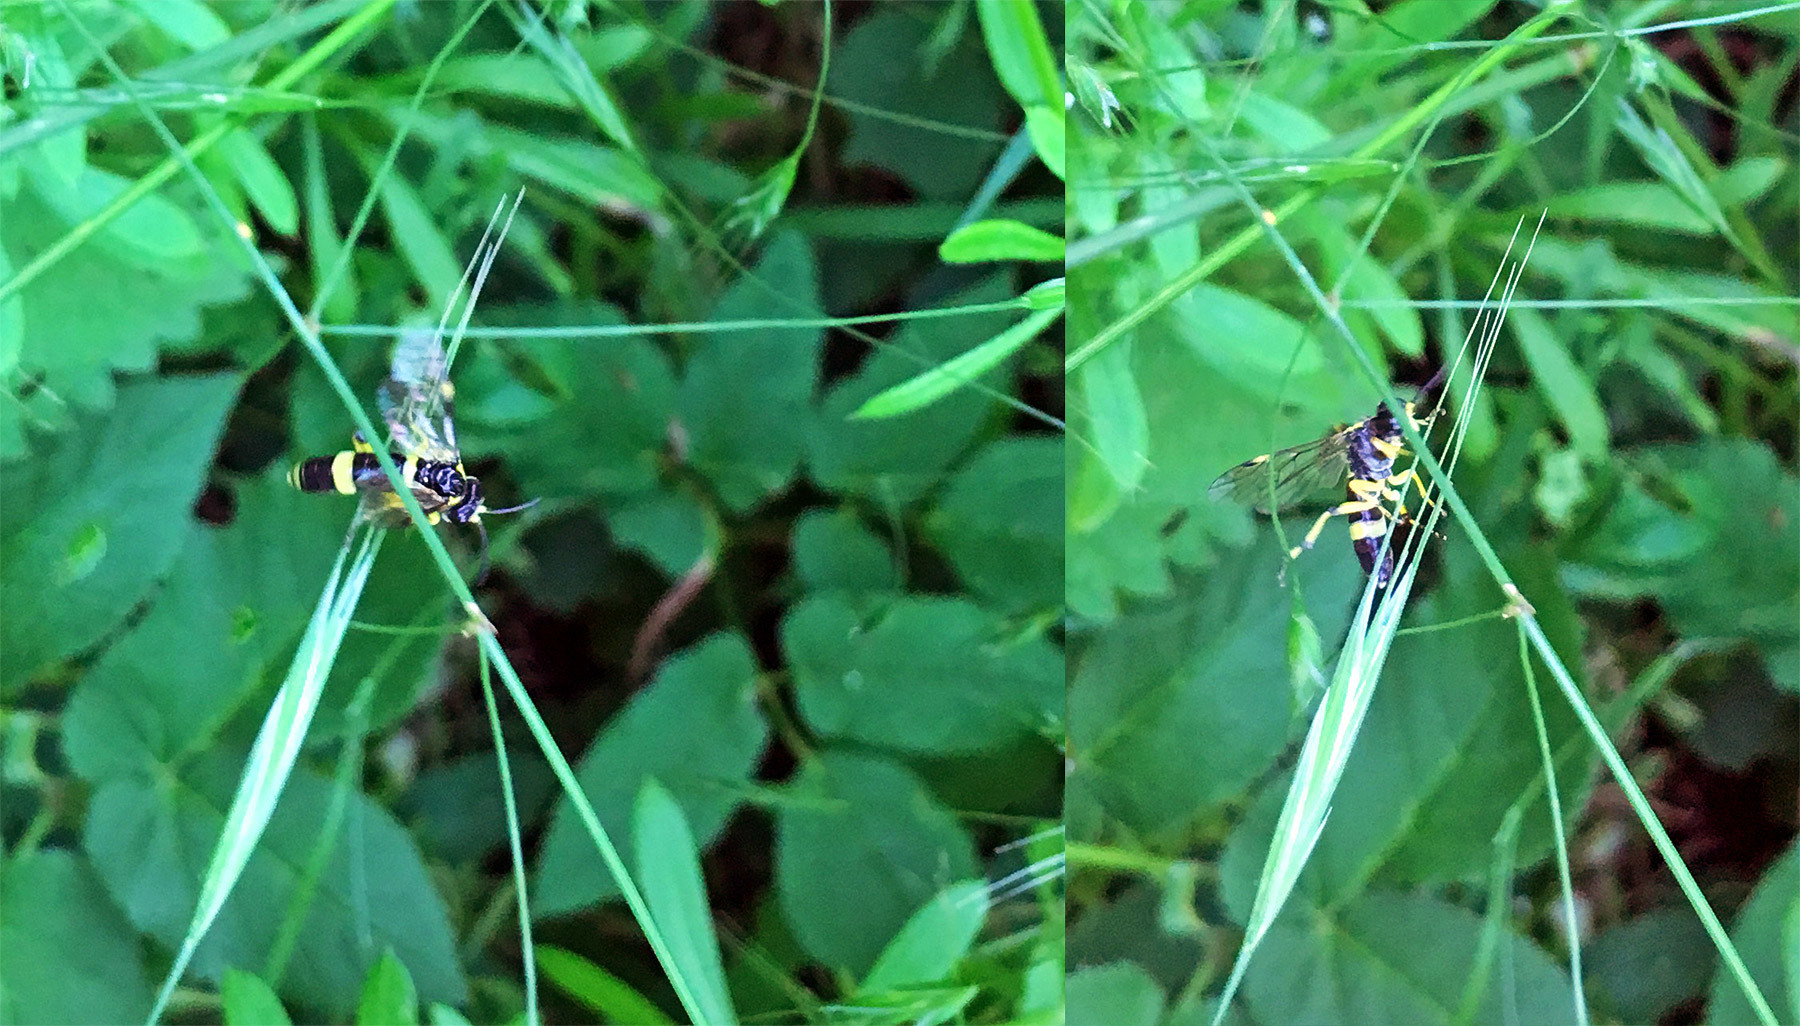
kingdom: Animalia
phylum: Arthropoda
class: Insecta
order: Hymenoptera
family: Tenthredinidae
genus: Tenthredo
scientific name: Tenthredo zonula
